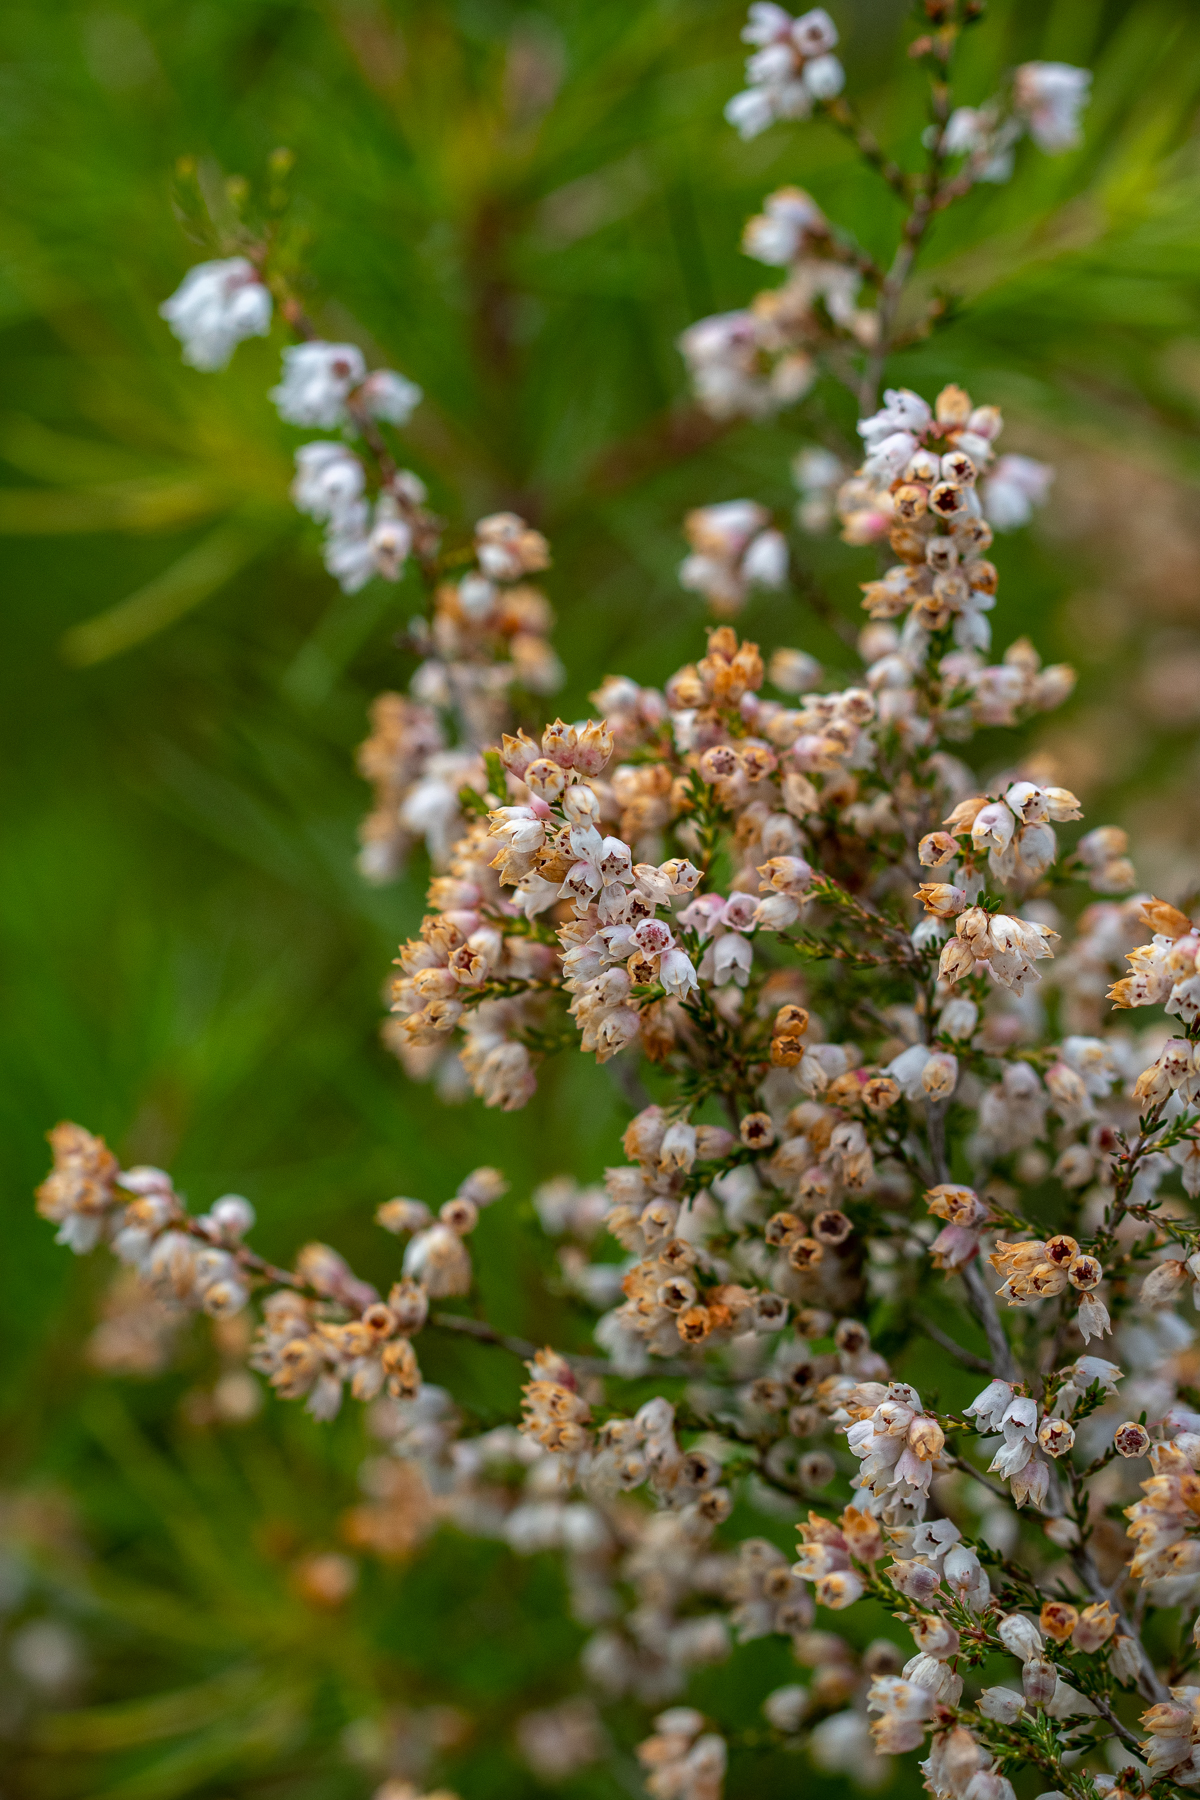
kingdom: Plantae
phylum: Tracheophyta
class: Magnoliopsida
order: Ericales
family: Ericaceae
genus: Erica
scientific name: Erica quadrangularis
